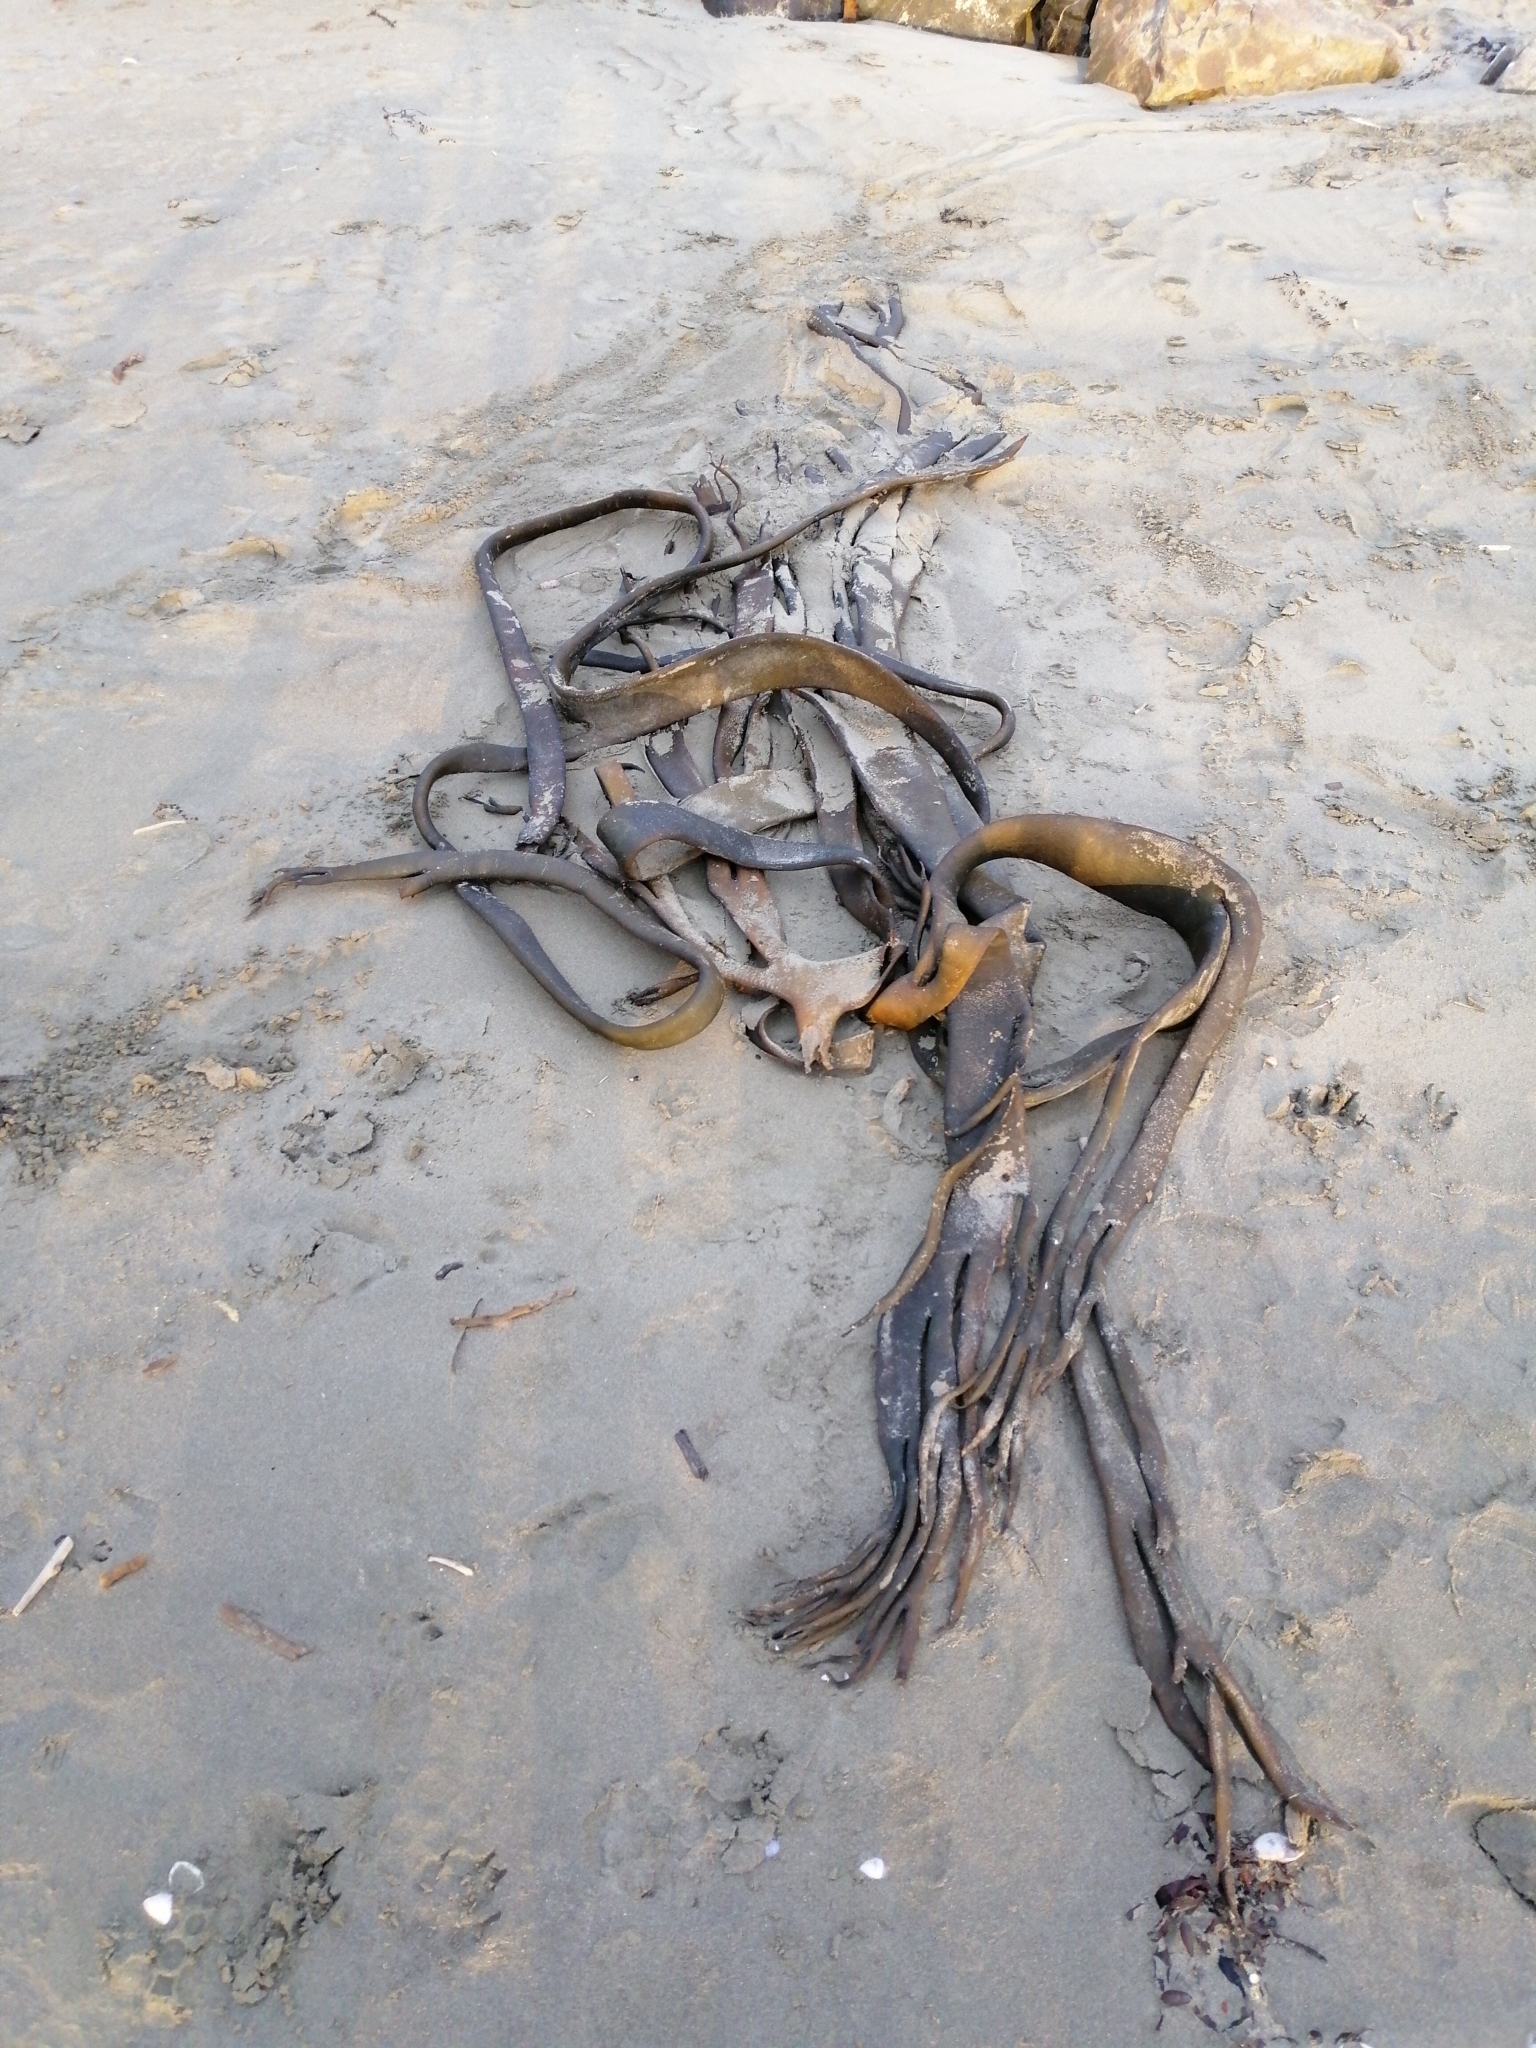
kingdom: Chromista
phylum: Ochrophyta
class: Phaeophyceae
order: Fucales
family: Durvillaeaceae
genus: Durvillaea
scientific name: Durvillaea antarctica
